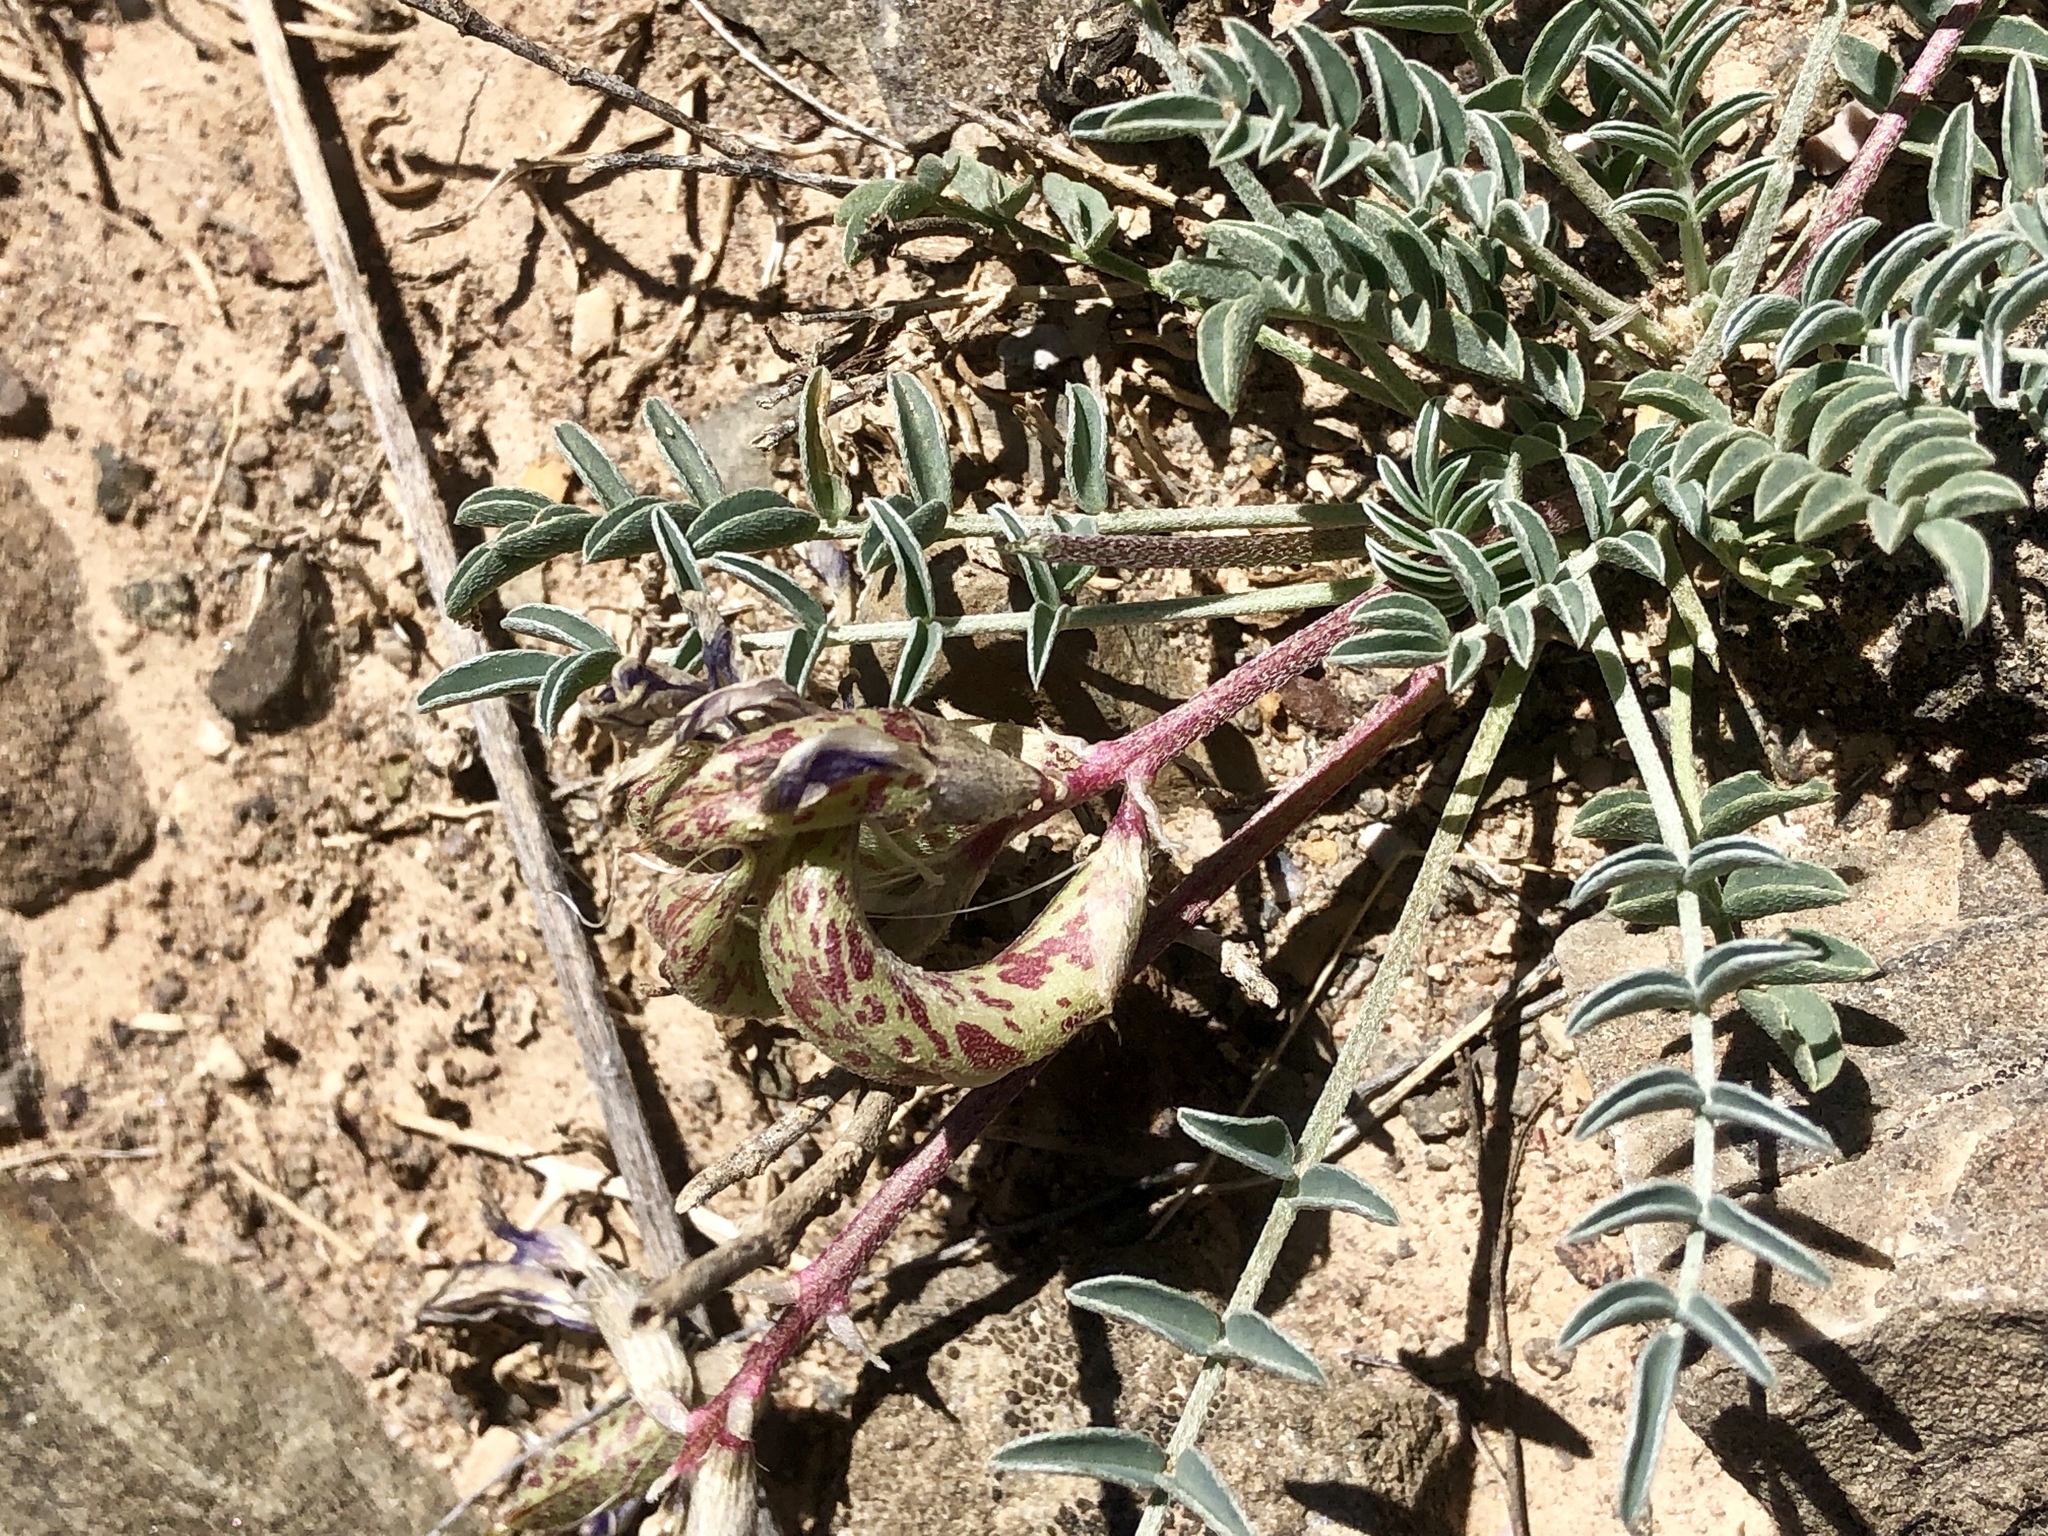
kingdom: Plantae
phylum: Tracheophyta
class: Magnoliopsida
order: Fabales
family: Fabaceae
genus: Astragalus
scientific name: Astragalus waterfallii
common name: Waterfall's milkvetch
